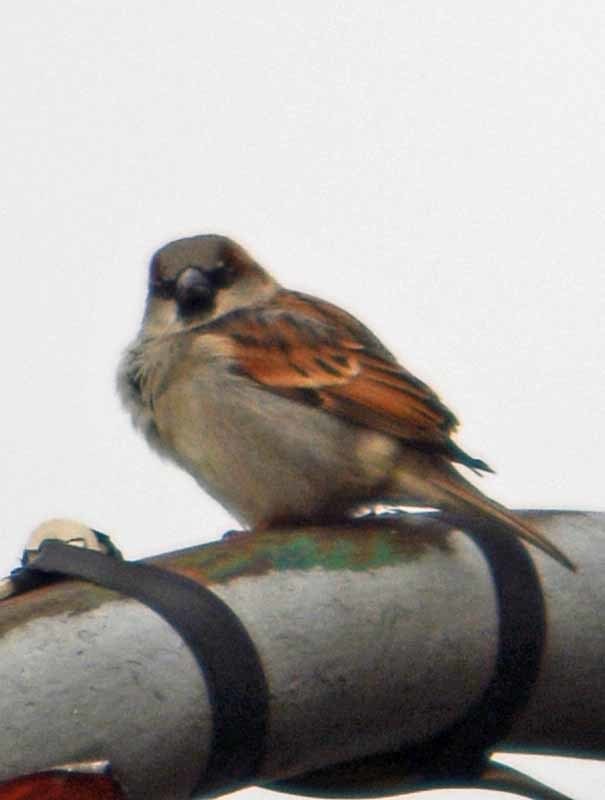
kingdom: Animalia
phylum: Chordata
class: Aves
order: Passeriformes
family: Passeridae
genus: Passer
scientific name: Passer domesticus
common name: House sparrow
